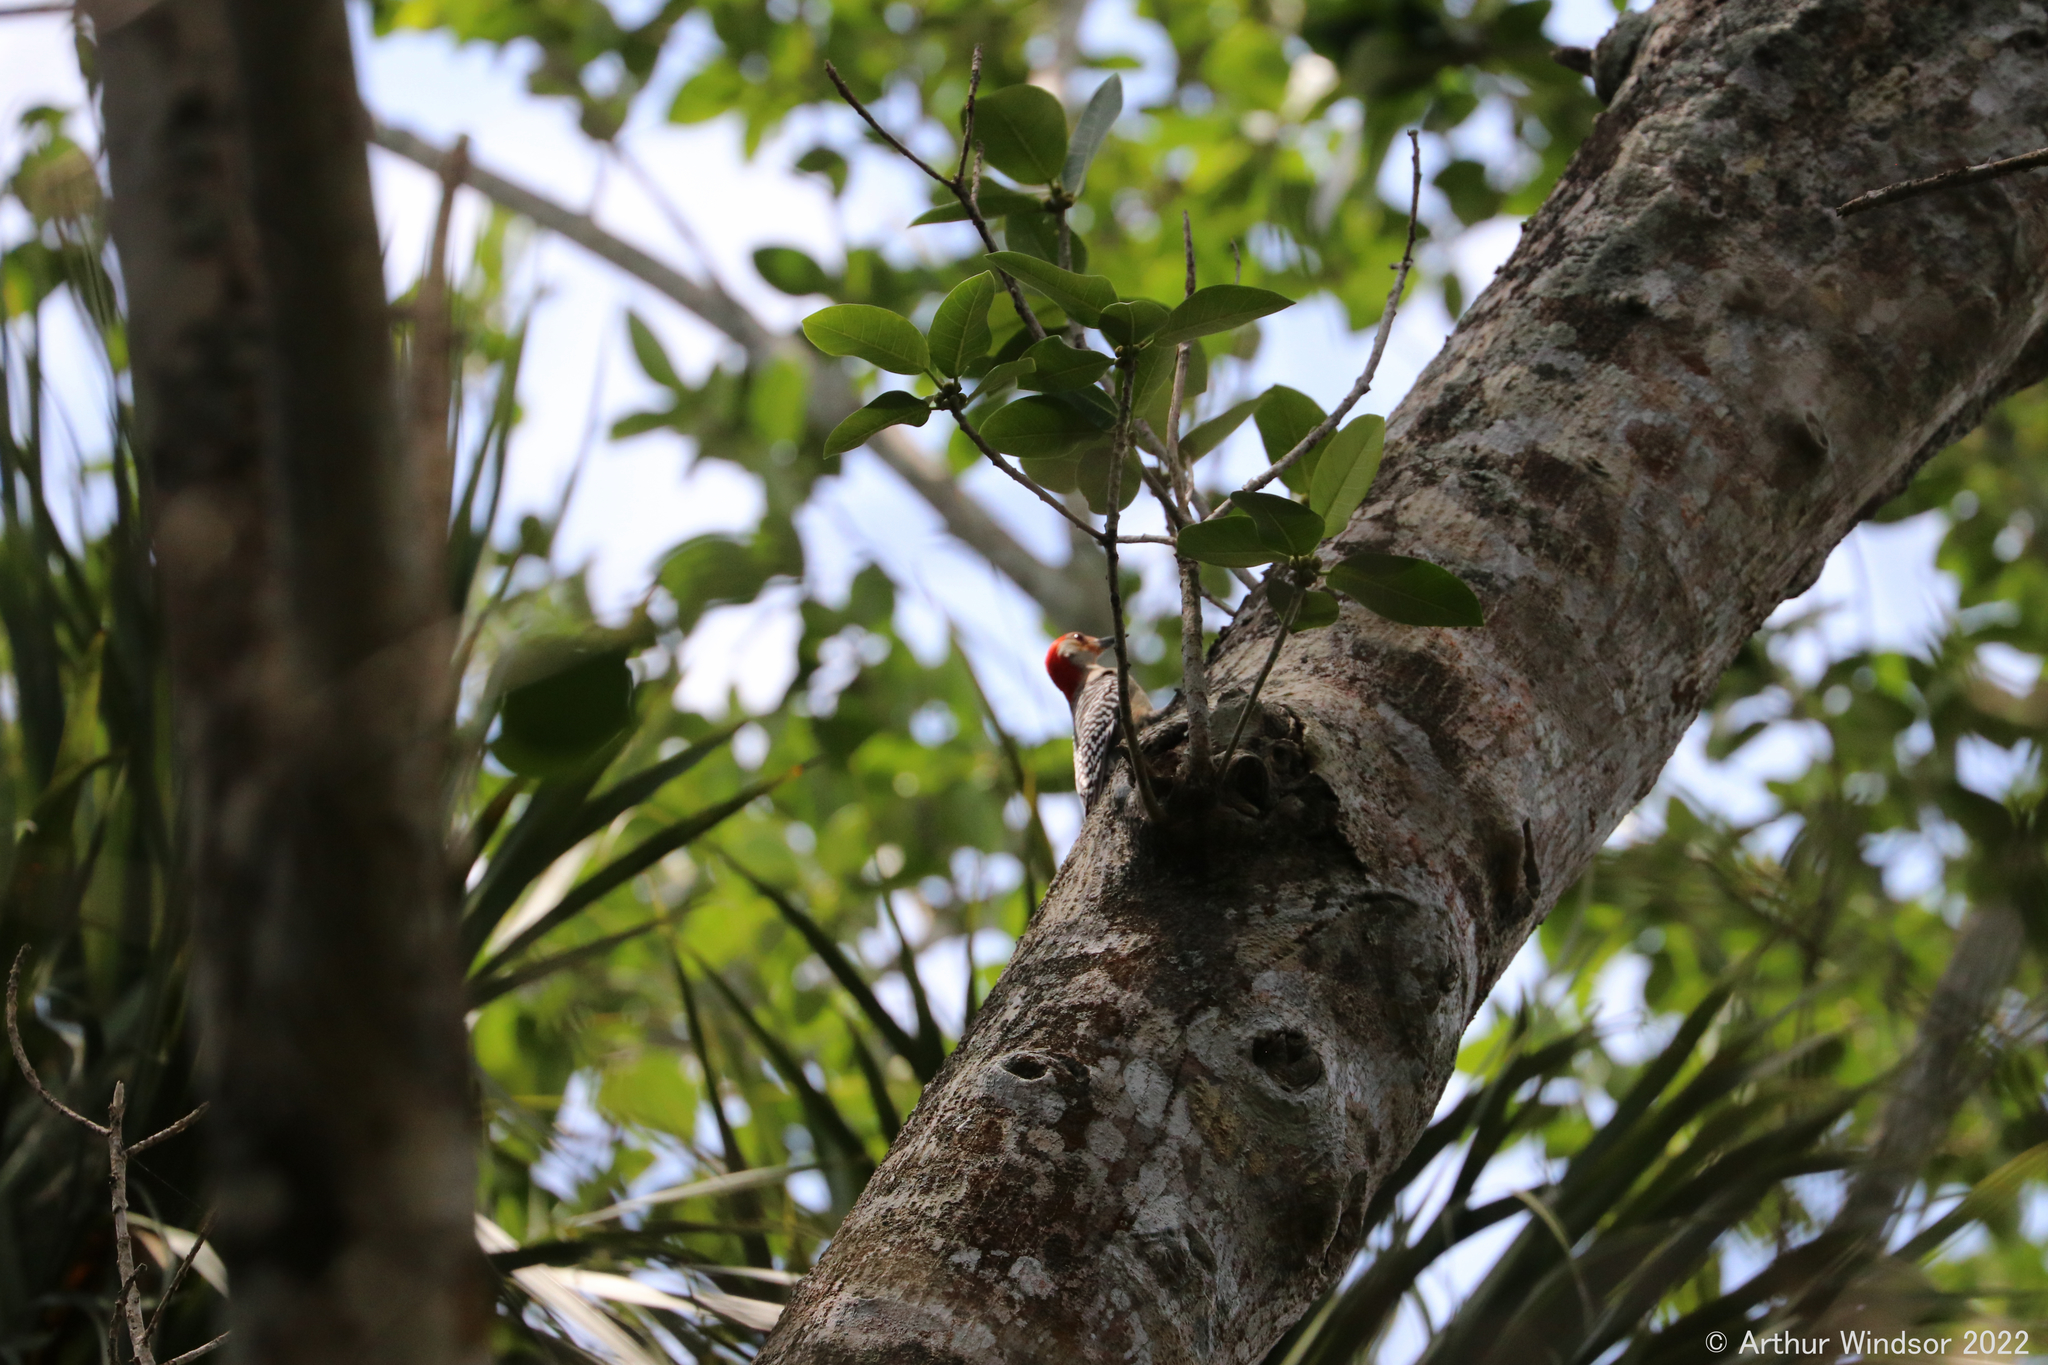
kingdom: Animalia
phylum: Chordata
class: Aves
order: Piciformes
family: Picidae
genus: Melanerpes
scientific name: Melanerpes carolinus
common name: Red-bellied woodpecker
